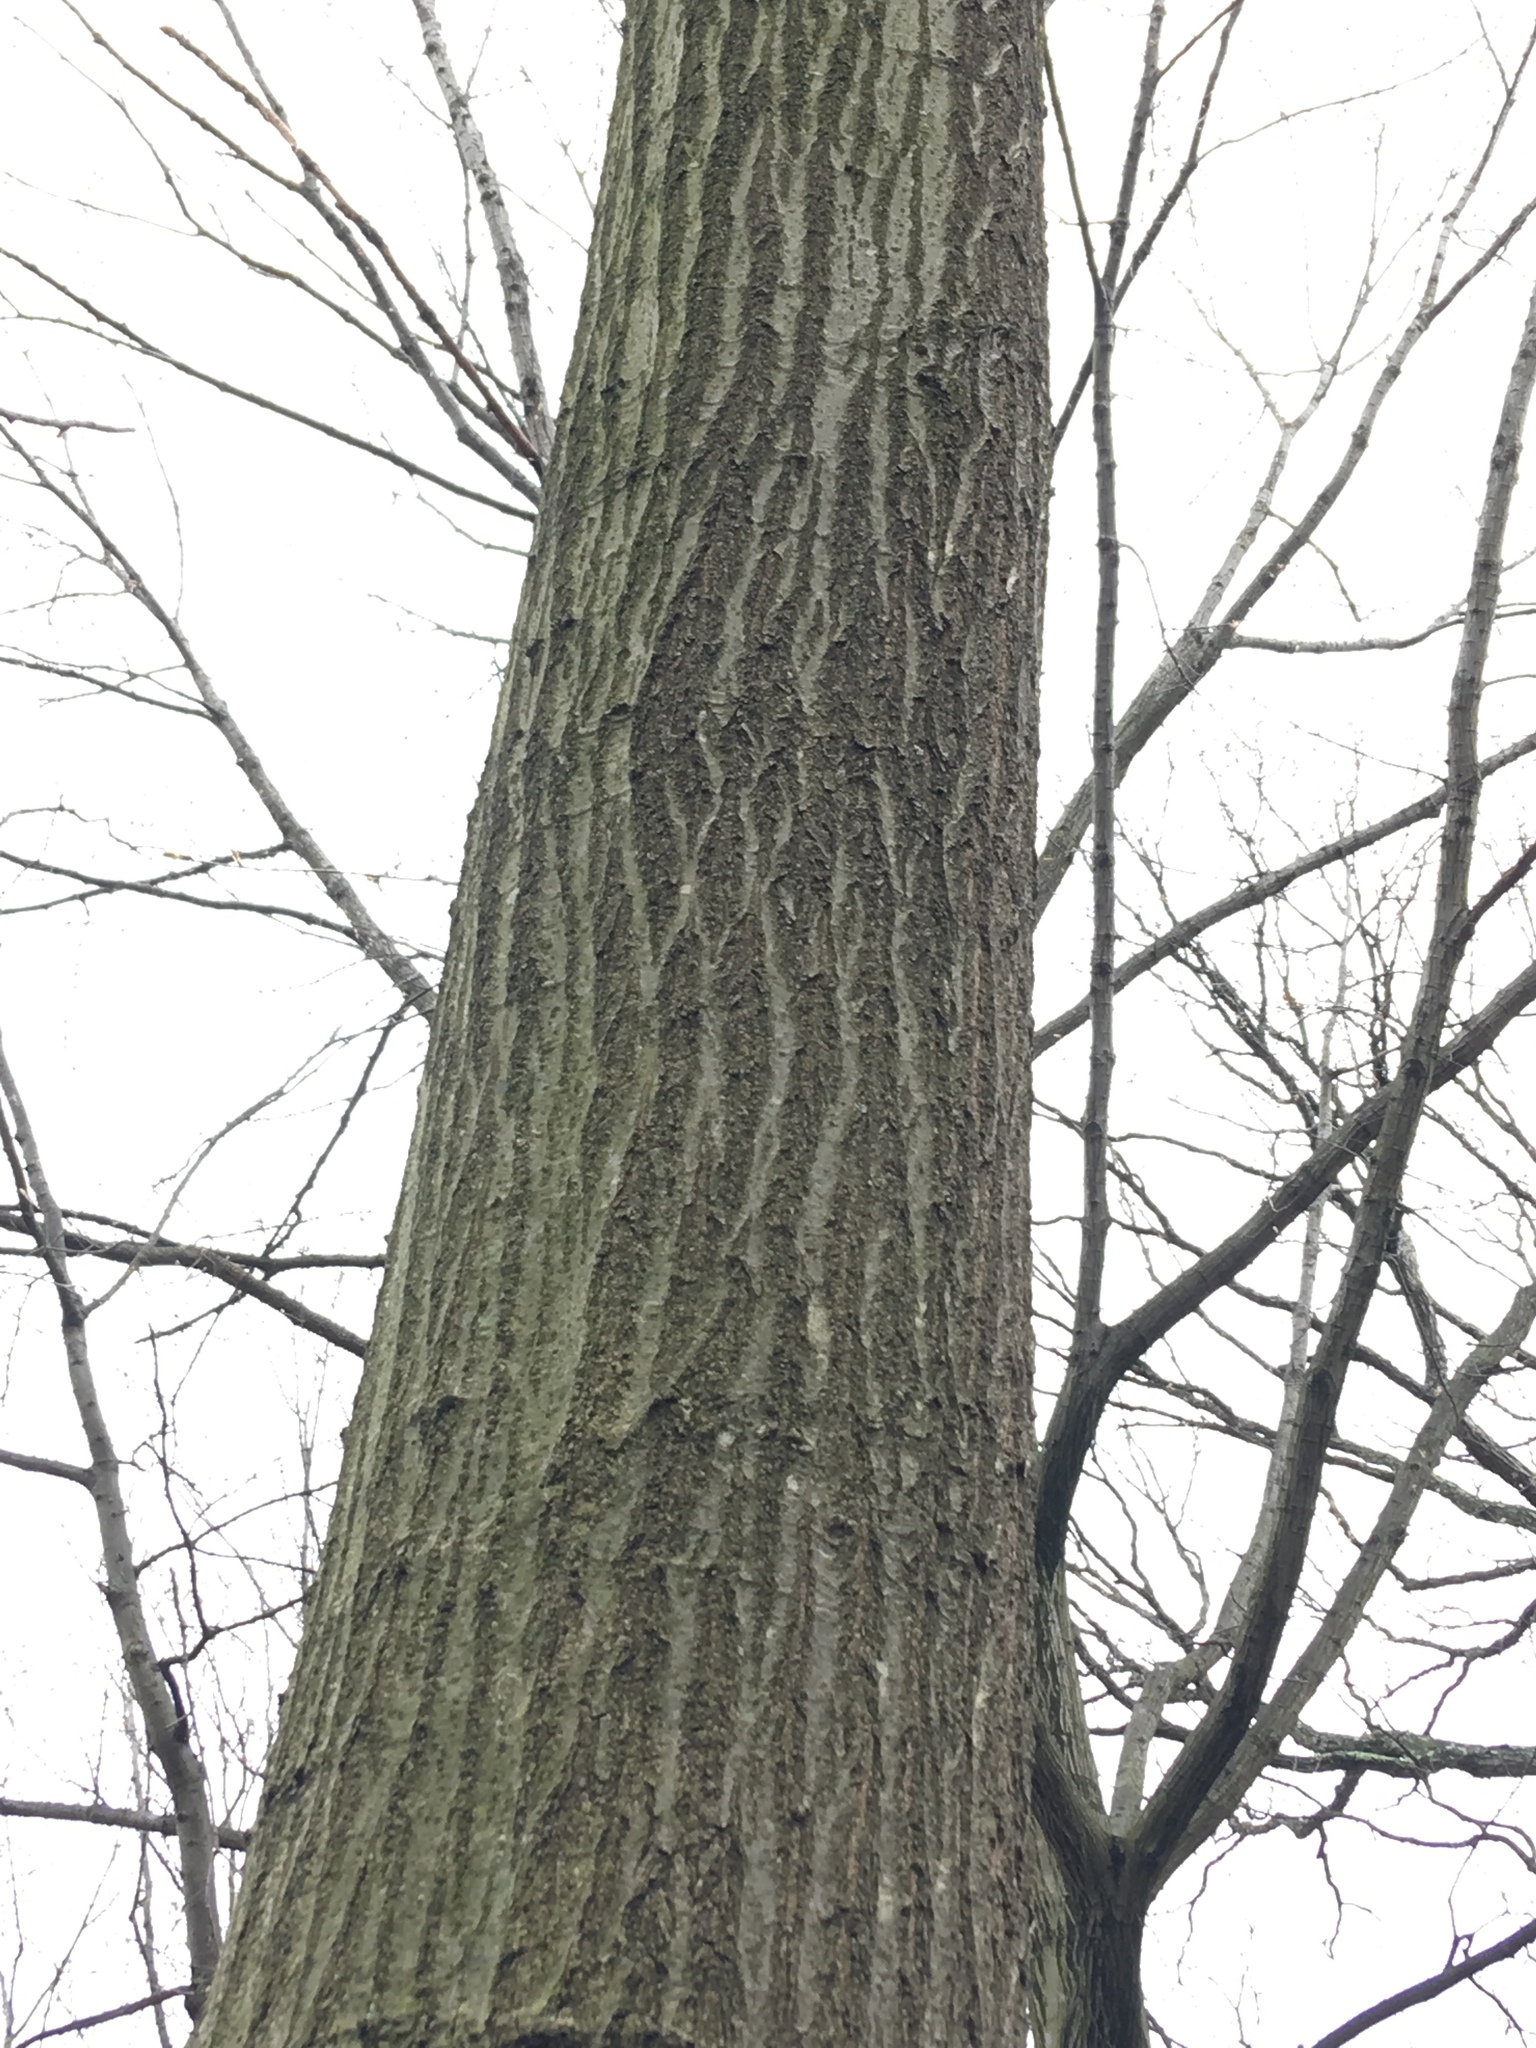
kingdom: Plantae
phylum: Tracheophyta
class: Magnoliopsida
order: Fagales
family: Fagaceae
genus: Quercus
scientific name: Quercus rubra
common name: Red oak
